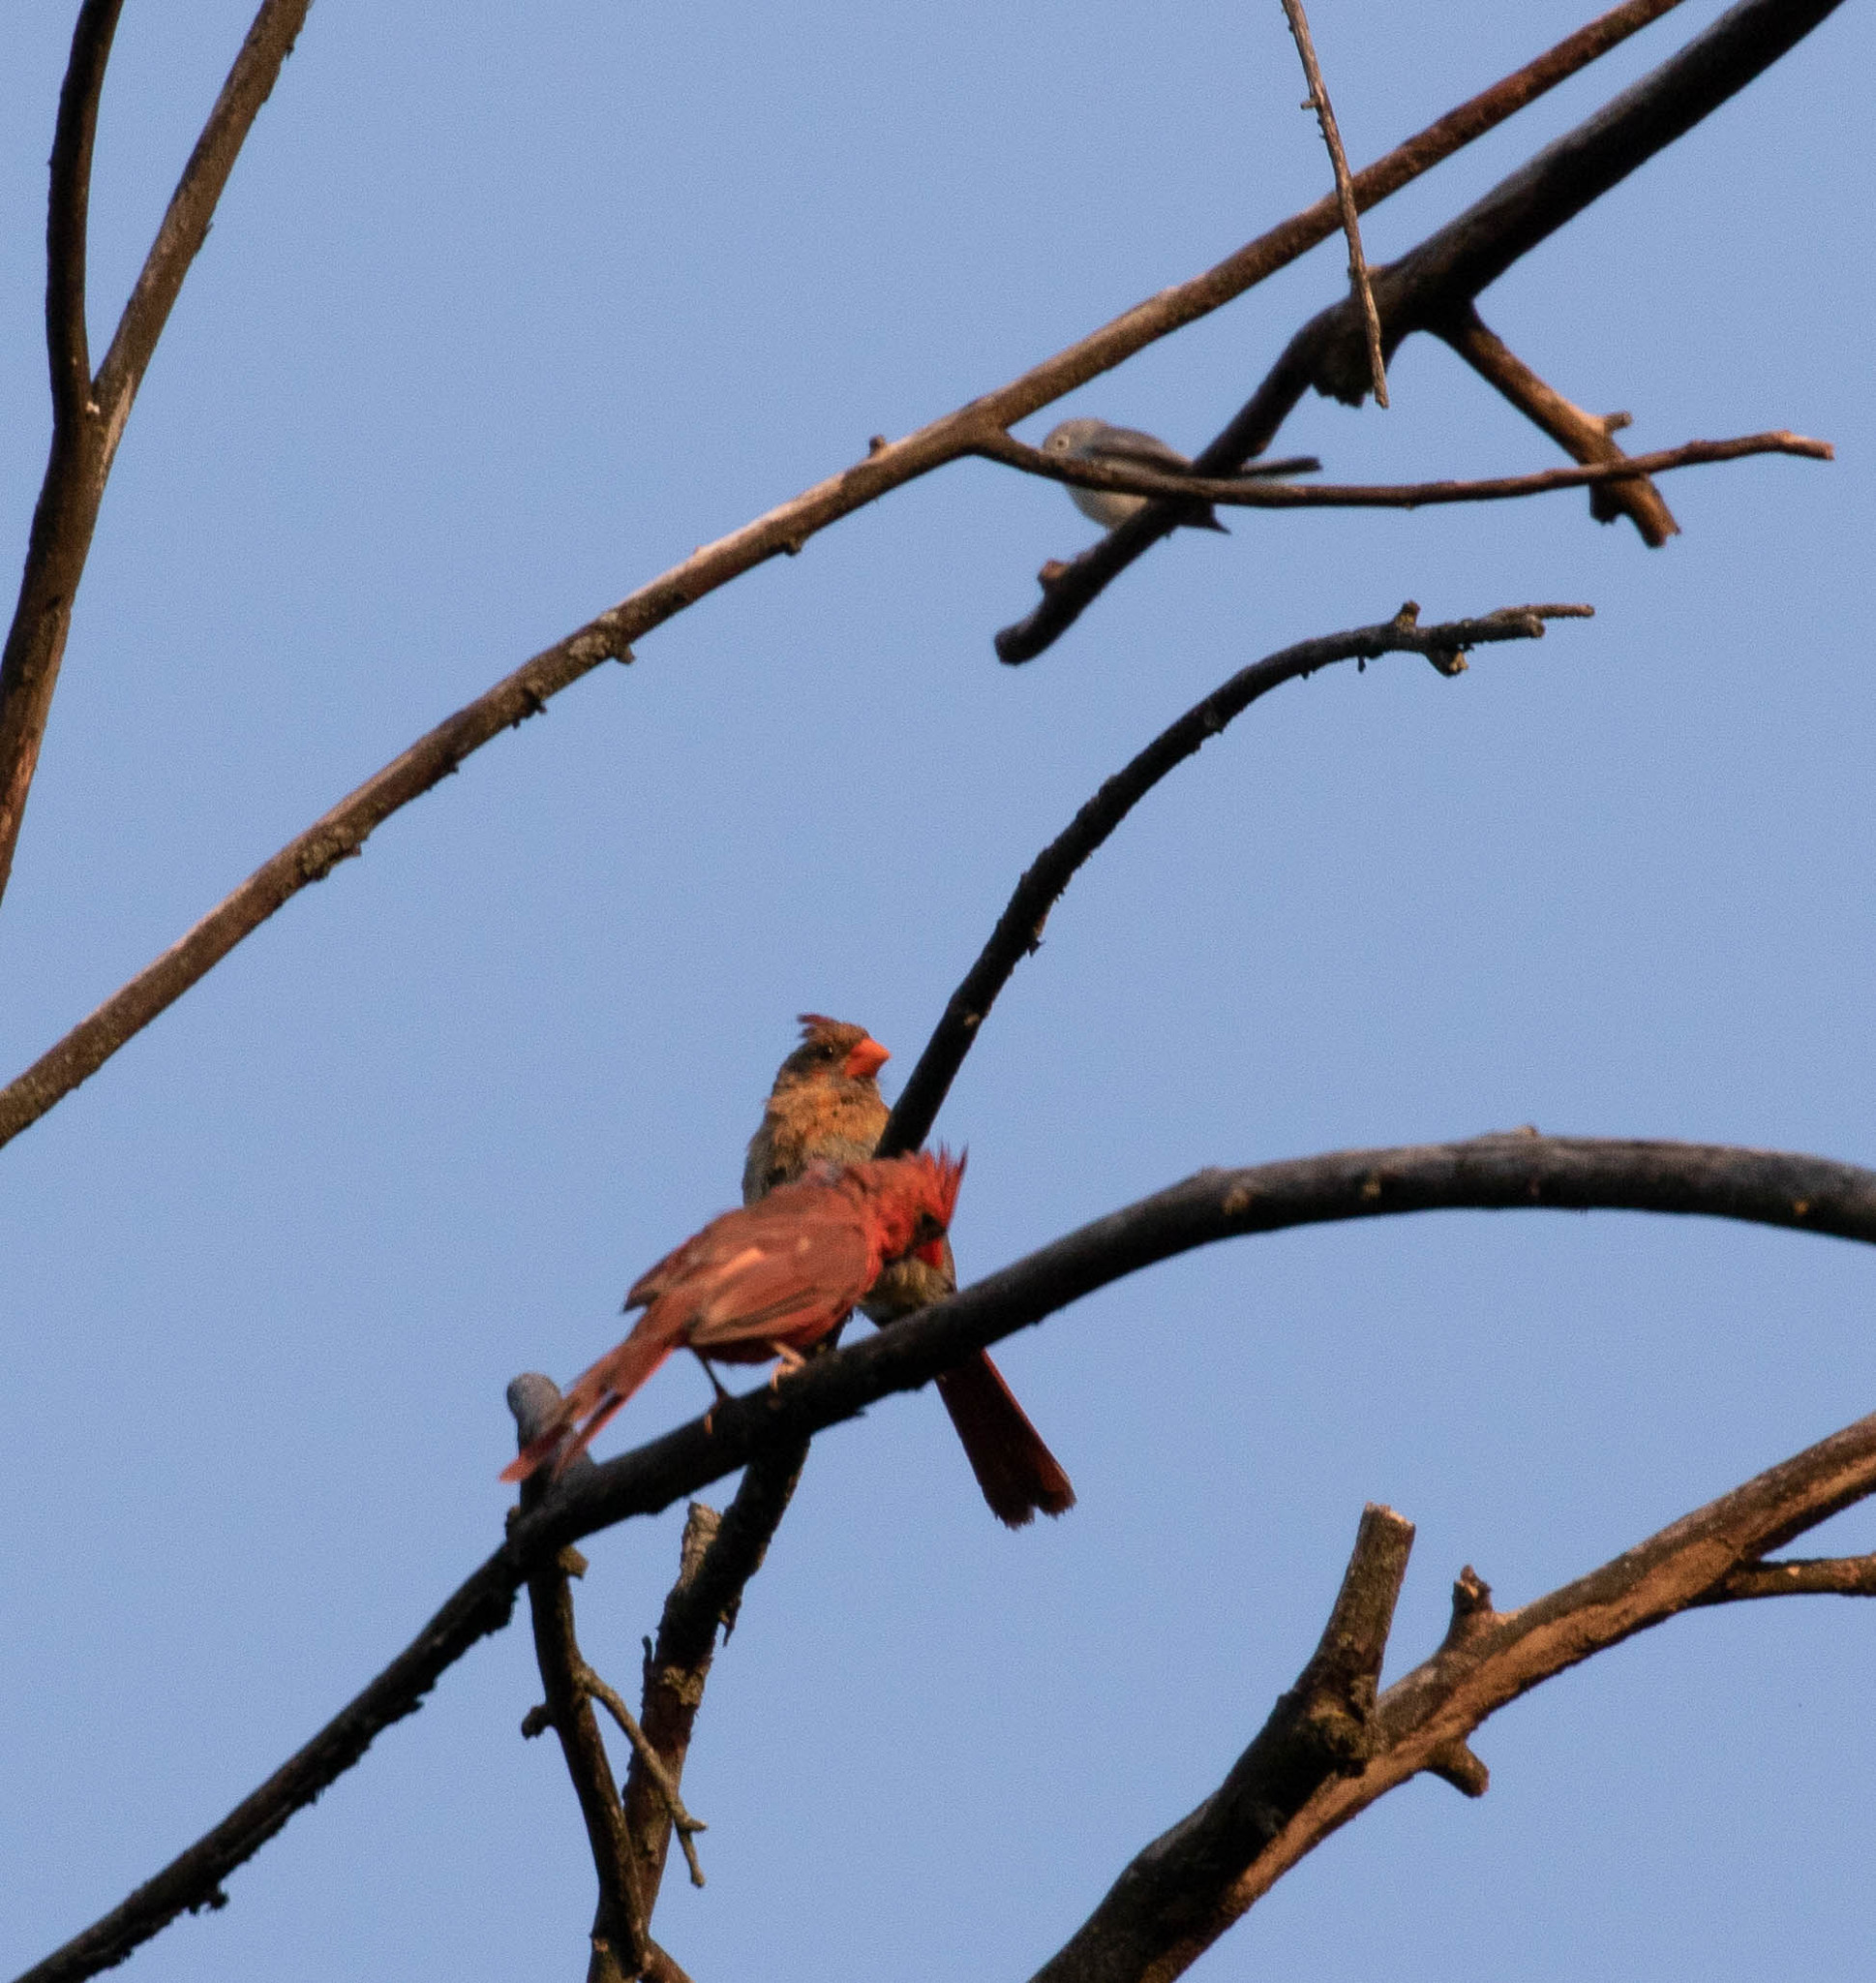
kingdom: Animalia
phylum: Chordata
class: Aves
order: Passeriformes
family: Cardinalidae
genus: Cardinalis
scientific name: Cardinalis cardinalis
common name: Northern cardinal
